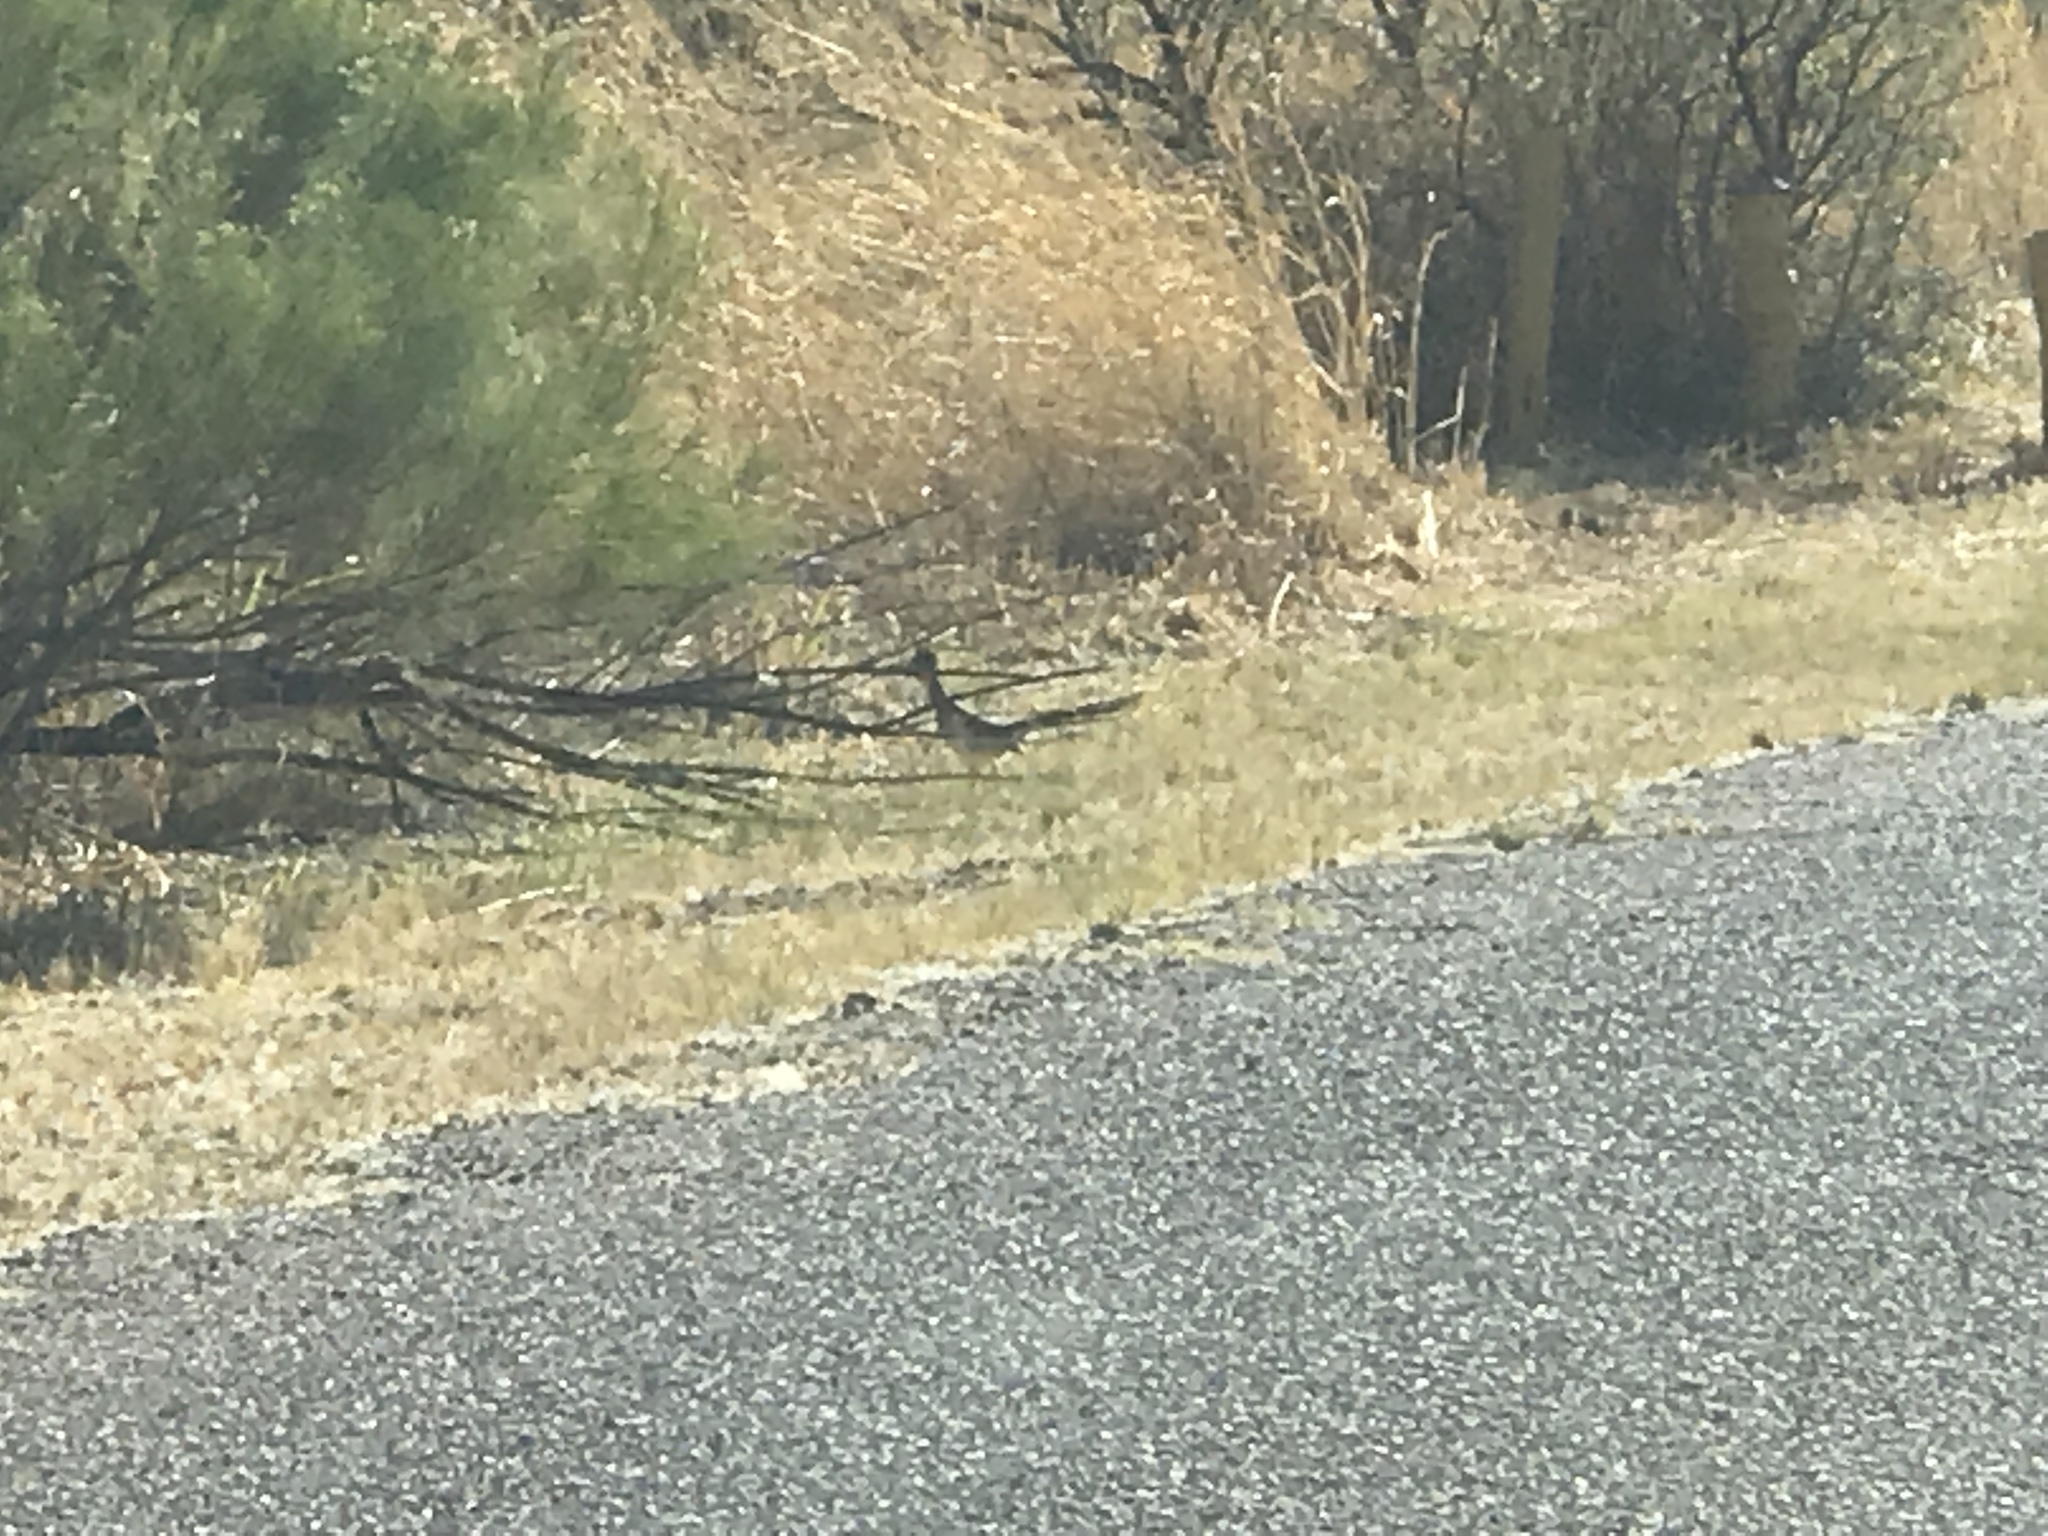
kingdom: Animalia
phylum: Chordata
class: Aves
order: Cuculiformes
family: Cuculidae
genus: Geococcyx
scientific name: Geococcyx californianus
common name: Greater roadrunner
